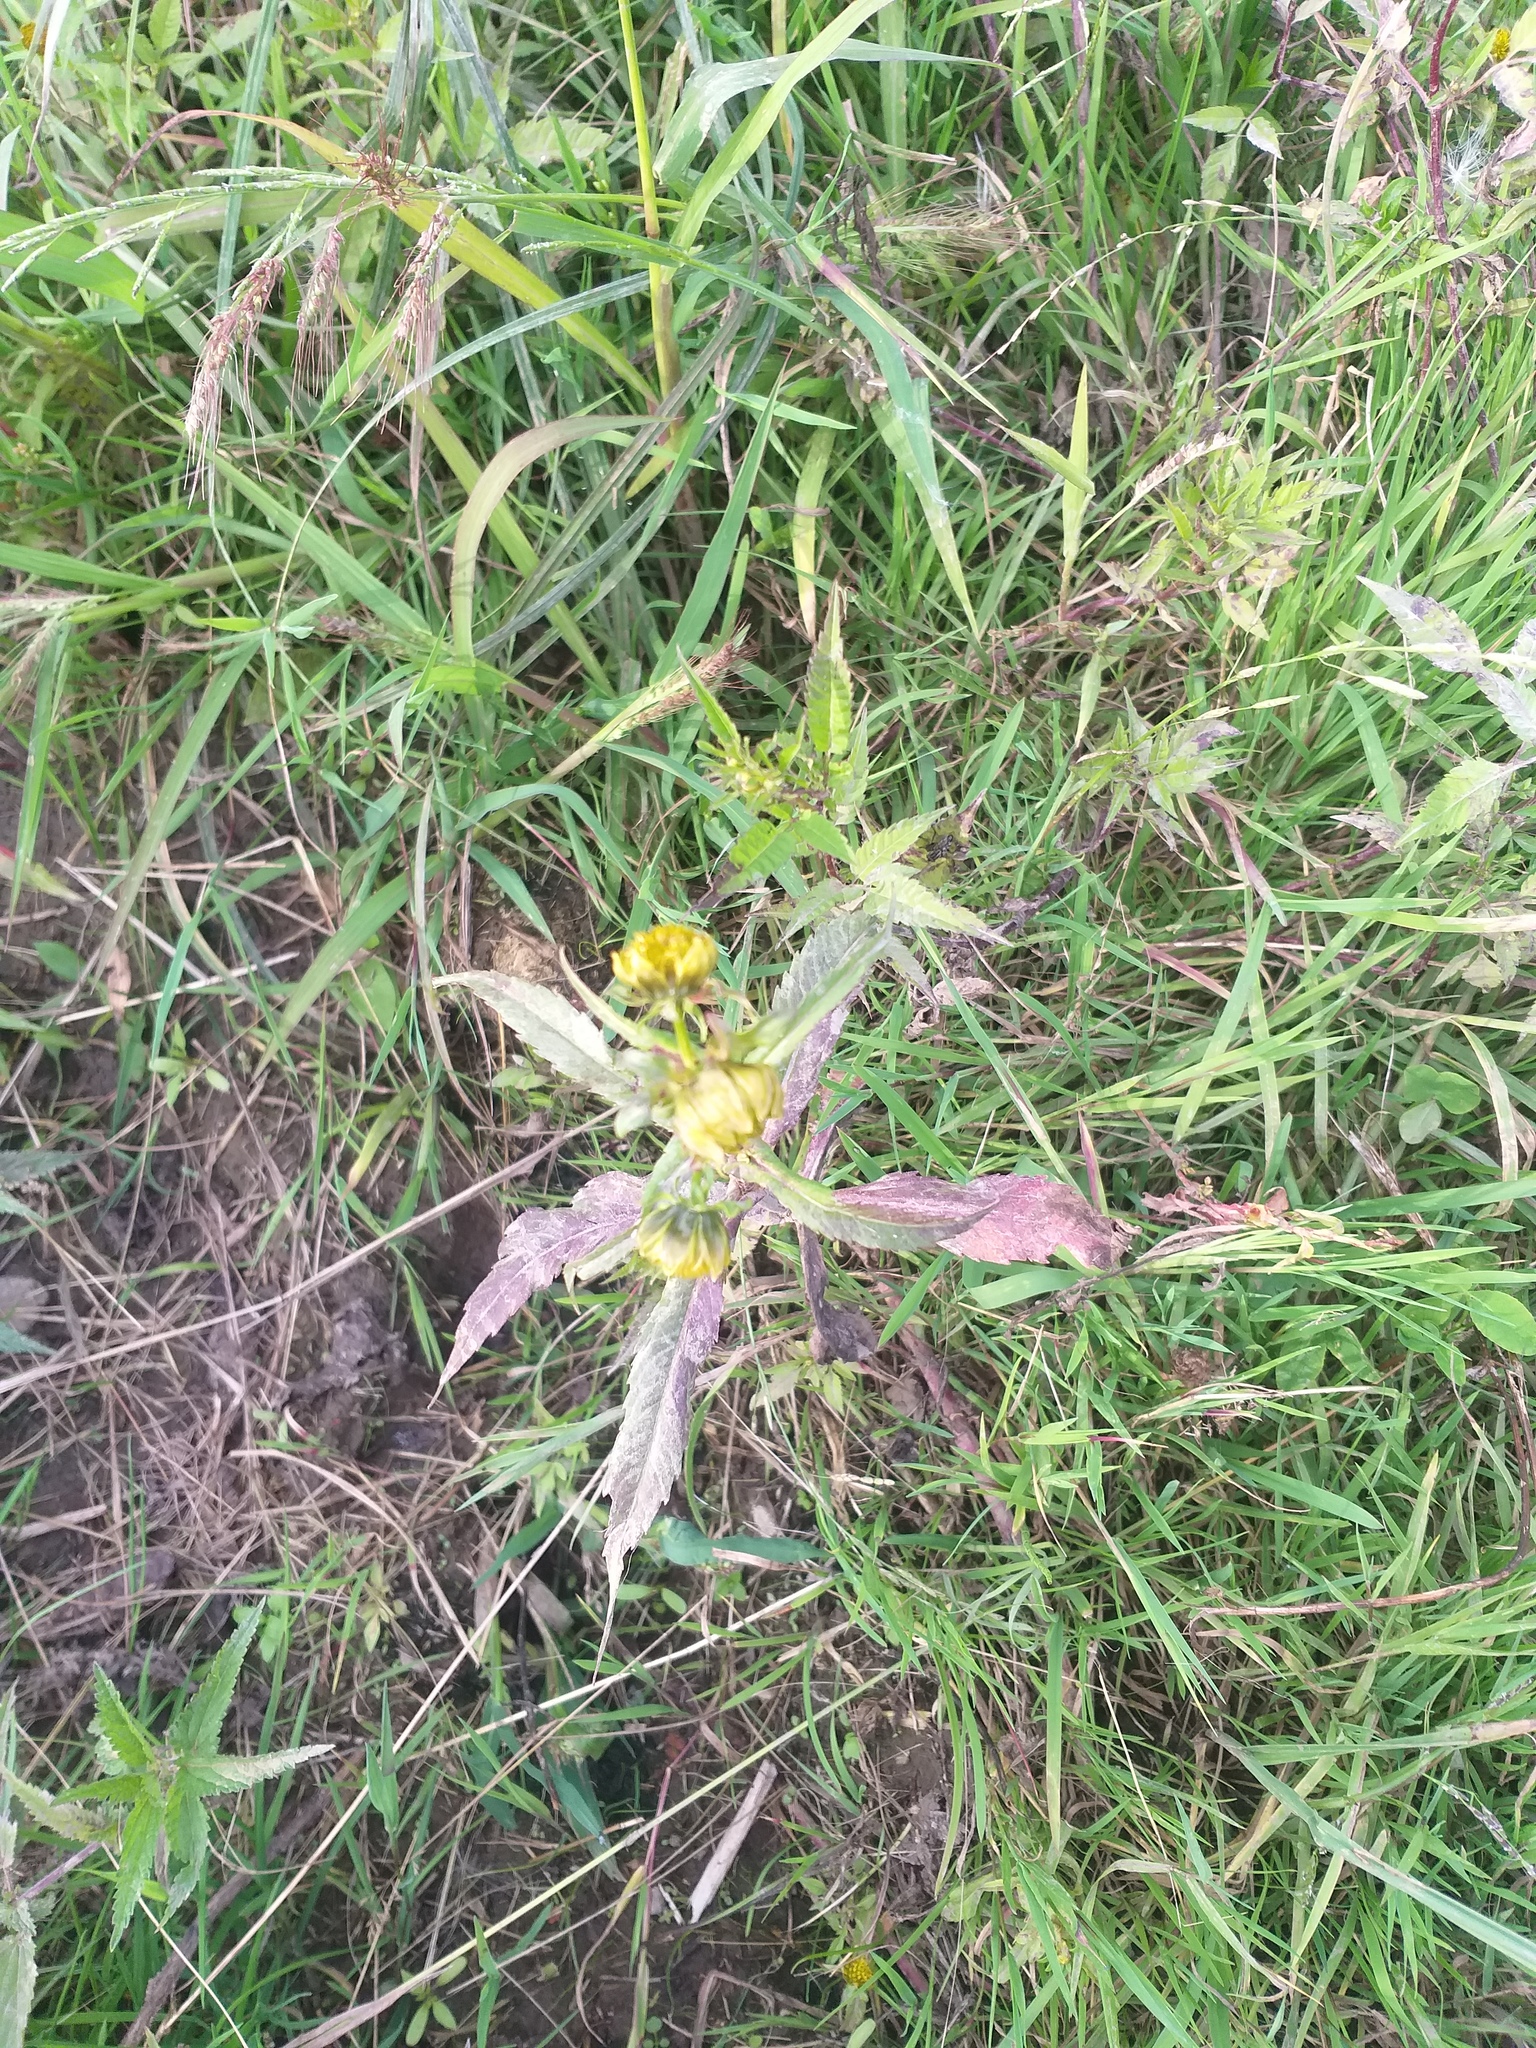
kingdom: Plantae
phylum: Tracheophyta
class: Magnoliopsida
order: Asterales
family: Asteraceae
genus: Bidens
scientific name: Bidens cernua
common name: Nodding bur-marigold
